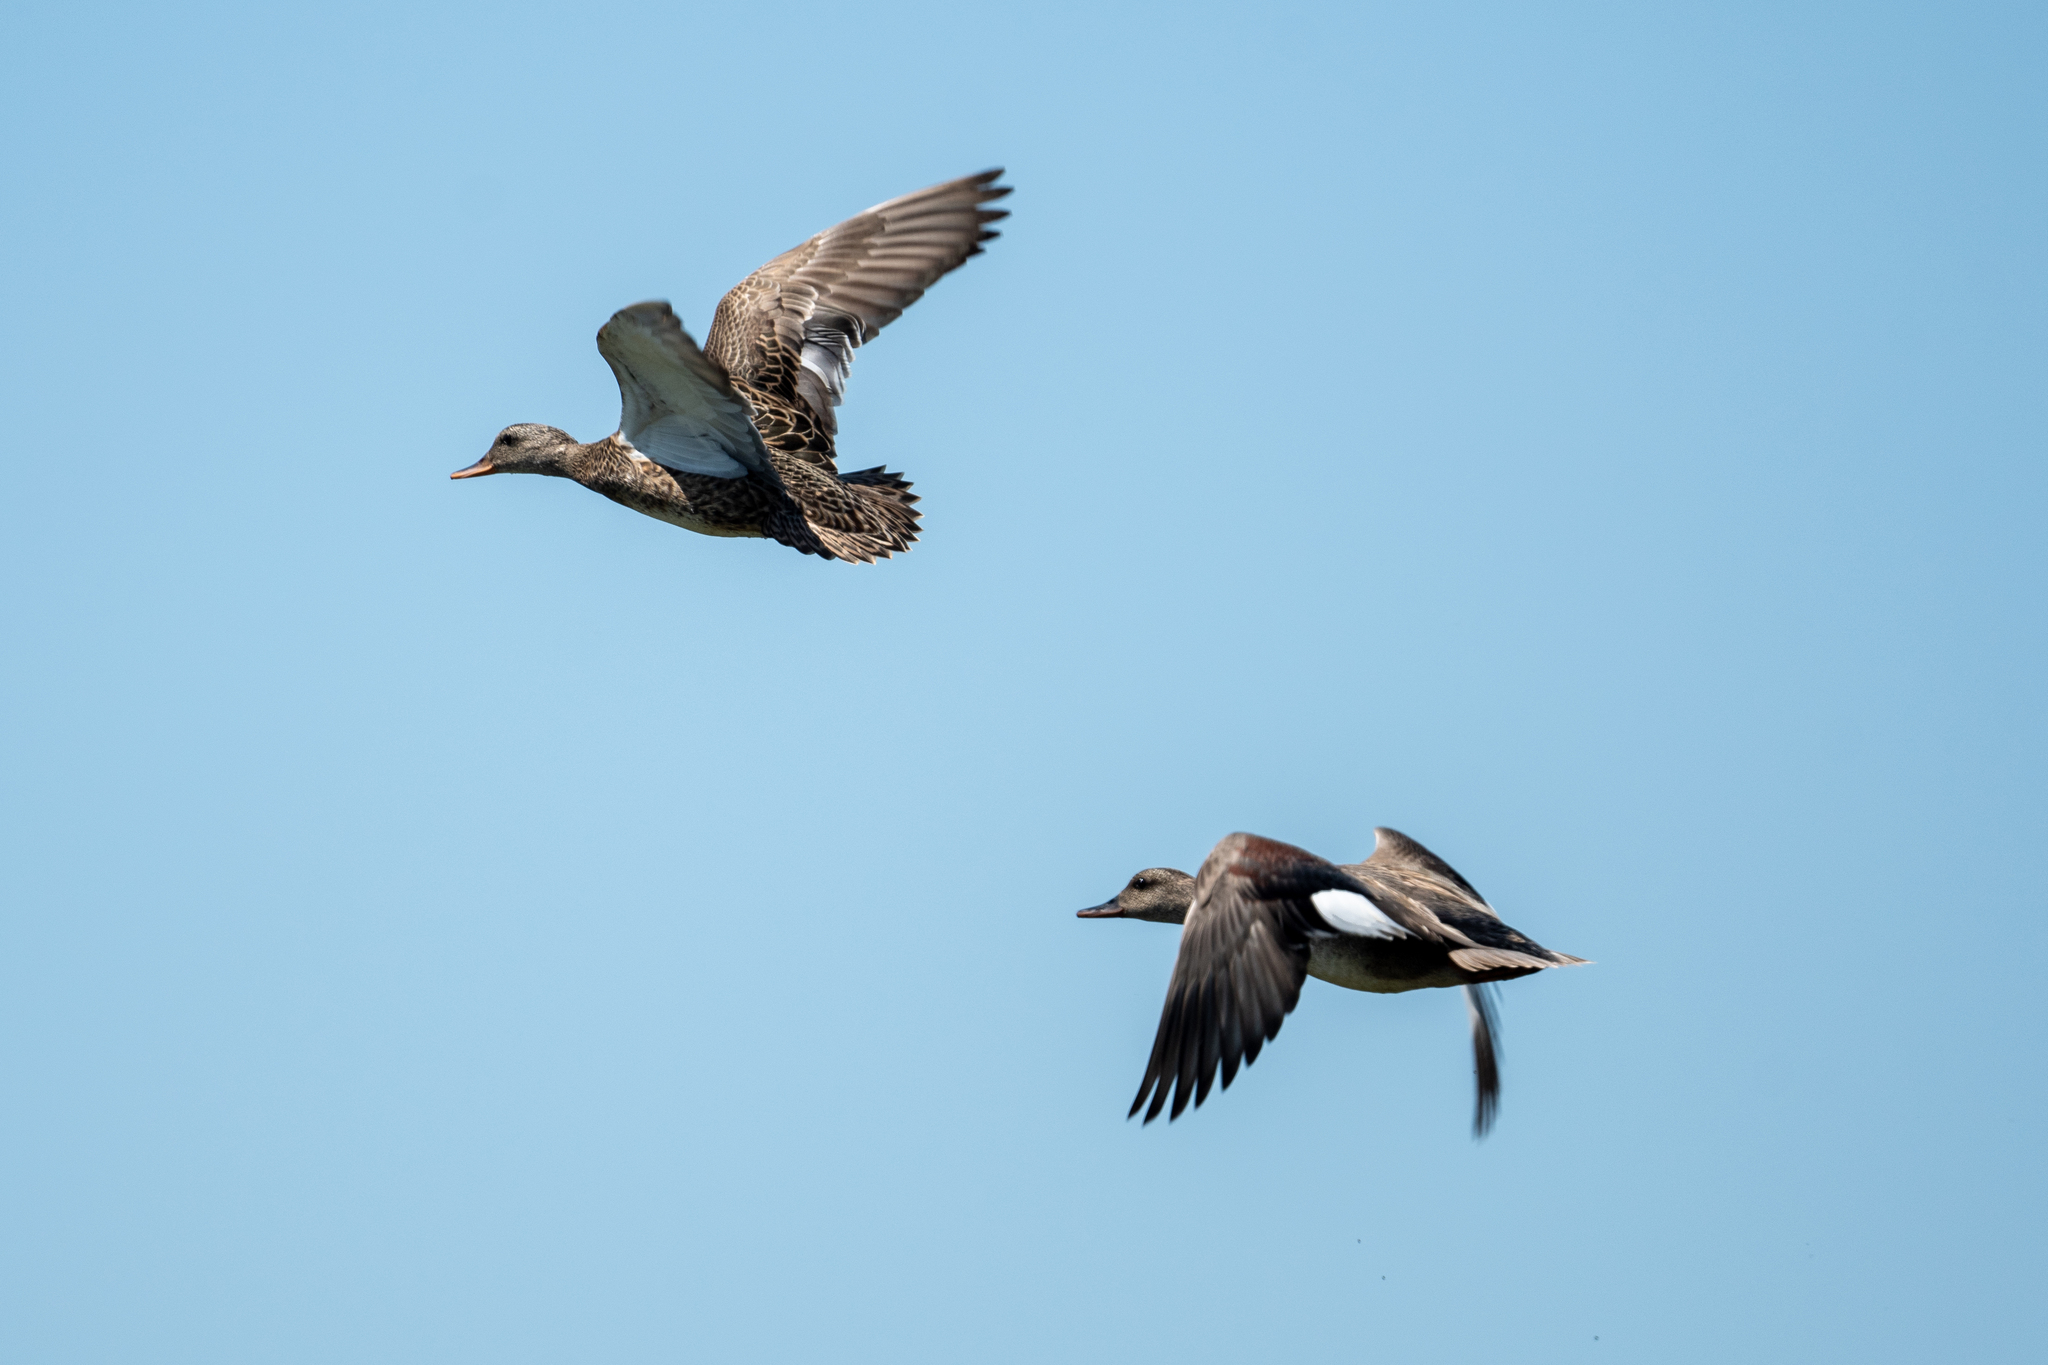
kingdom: Animalia
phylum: Chordata
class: Aves
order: Anseriformes
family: Anatidae
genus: Mareca
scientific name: Mareca strepera
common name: Gadwall
